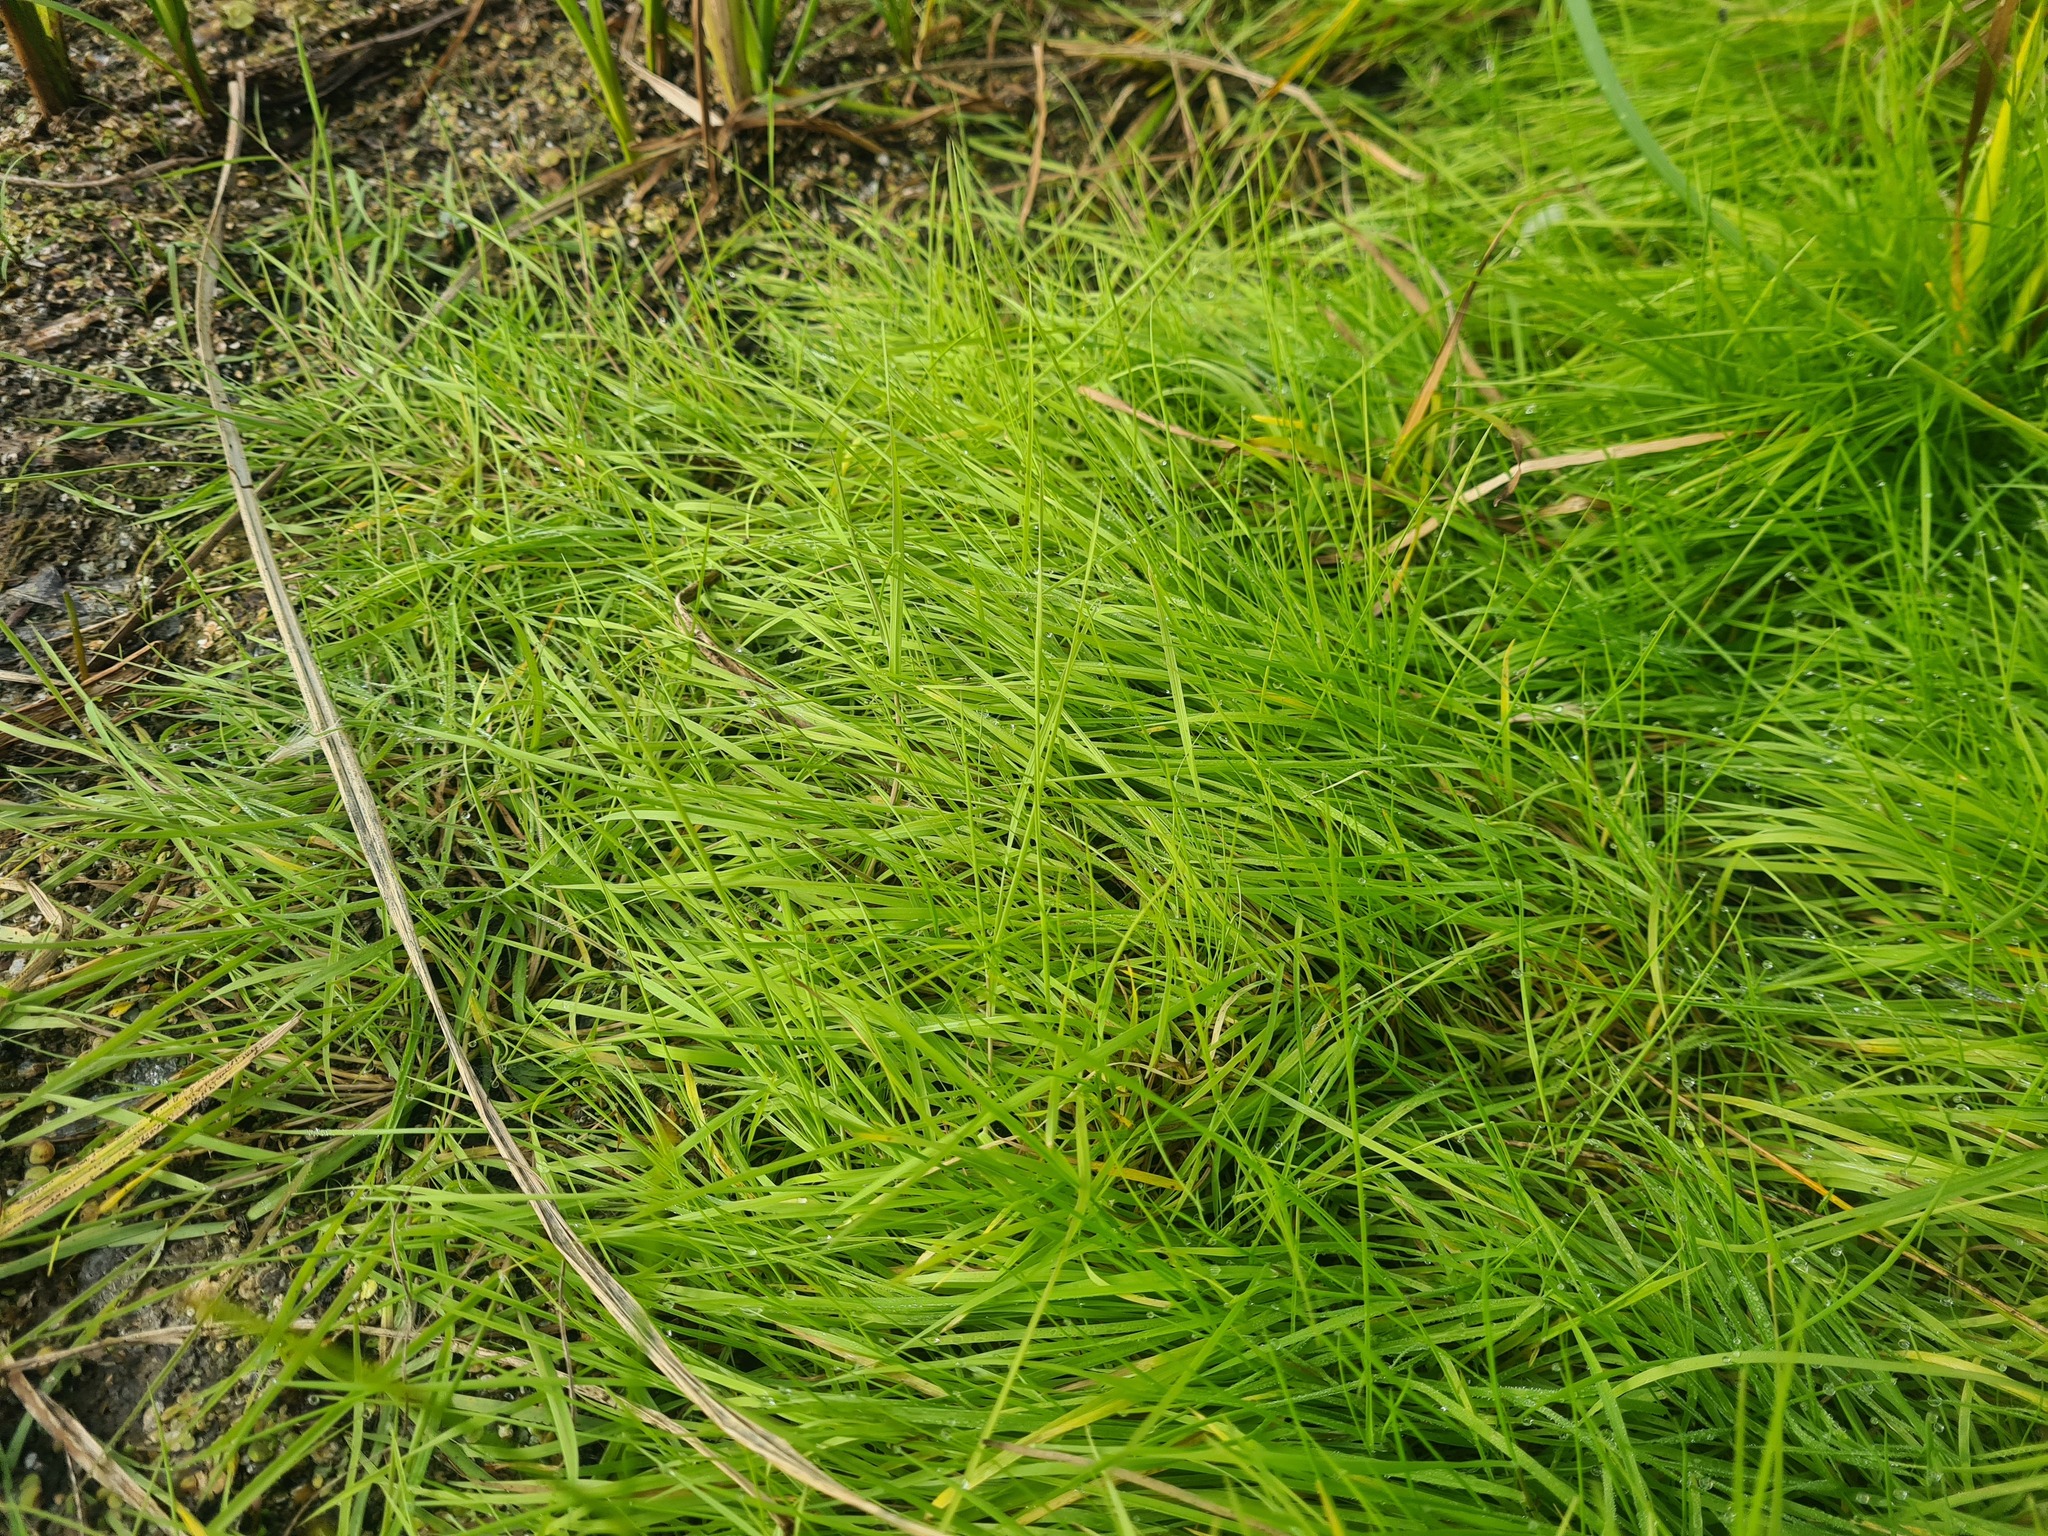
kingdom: Plantae
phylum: Tracheophyta
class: Liliopsida
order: Poales
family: Poaceae
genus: Agrostis
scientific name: Agrostis stolonifera
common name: Creeping bentgrass
